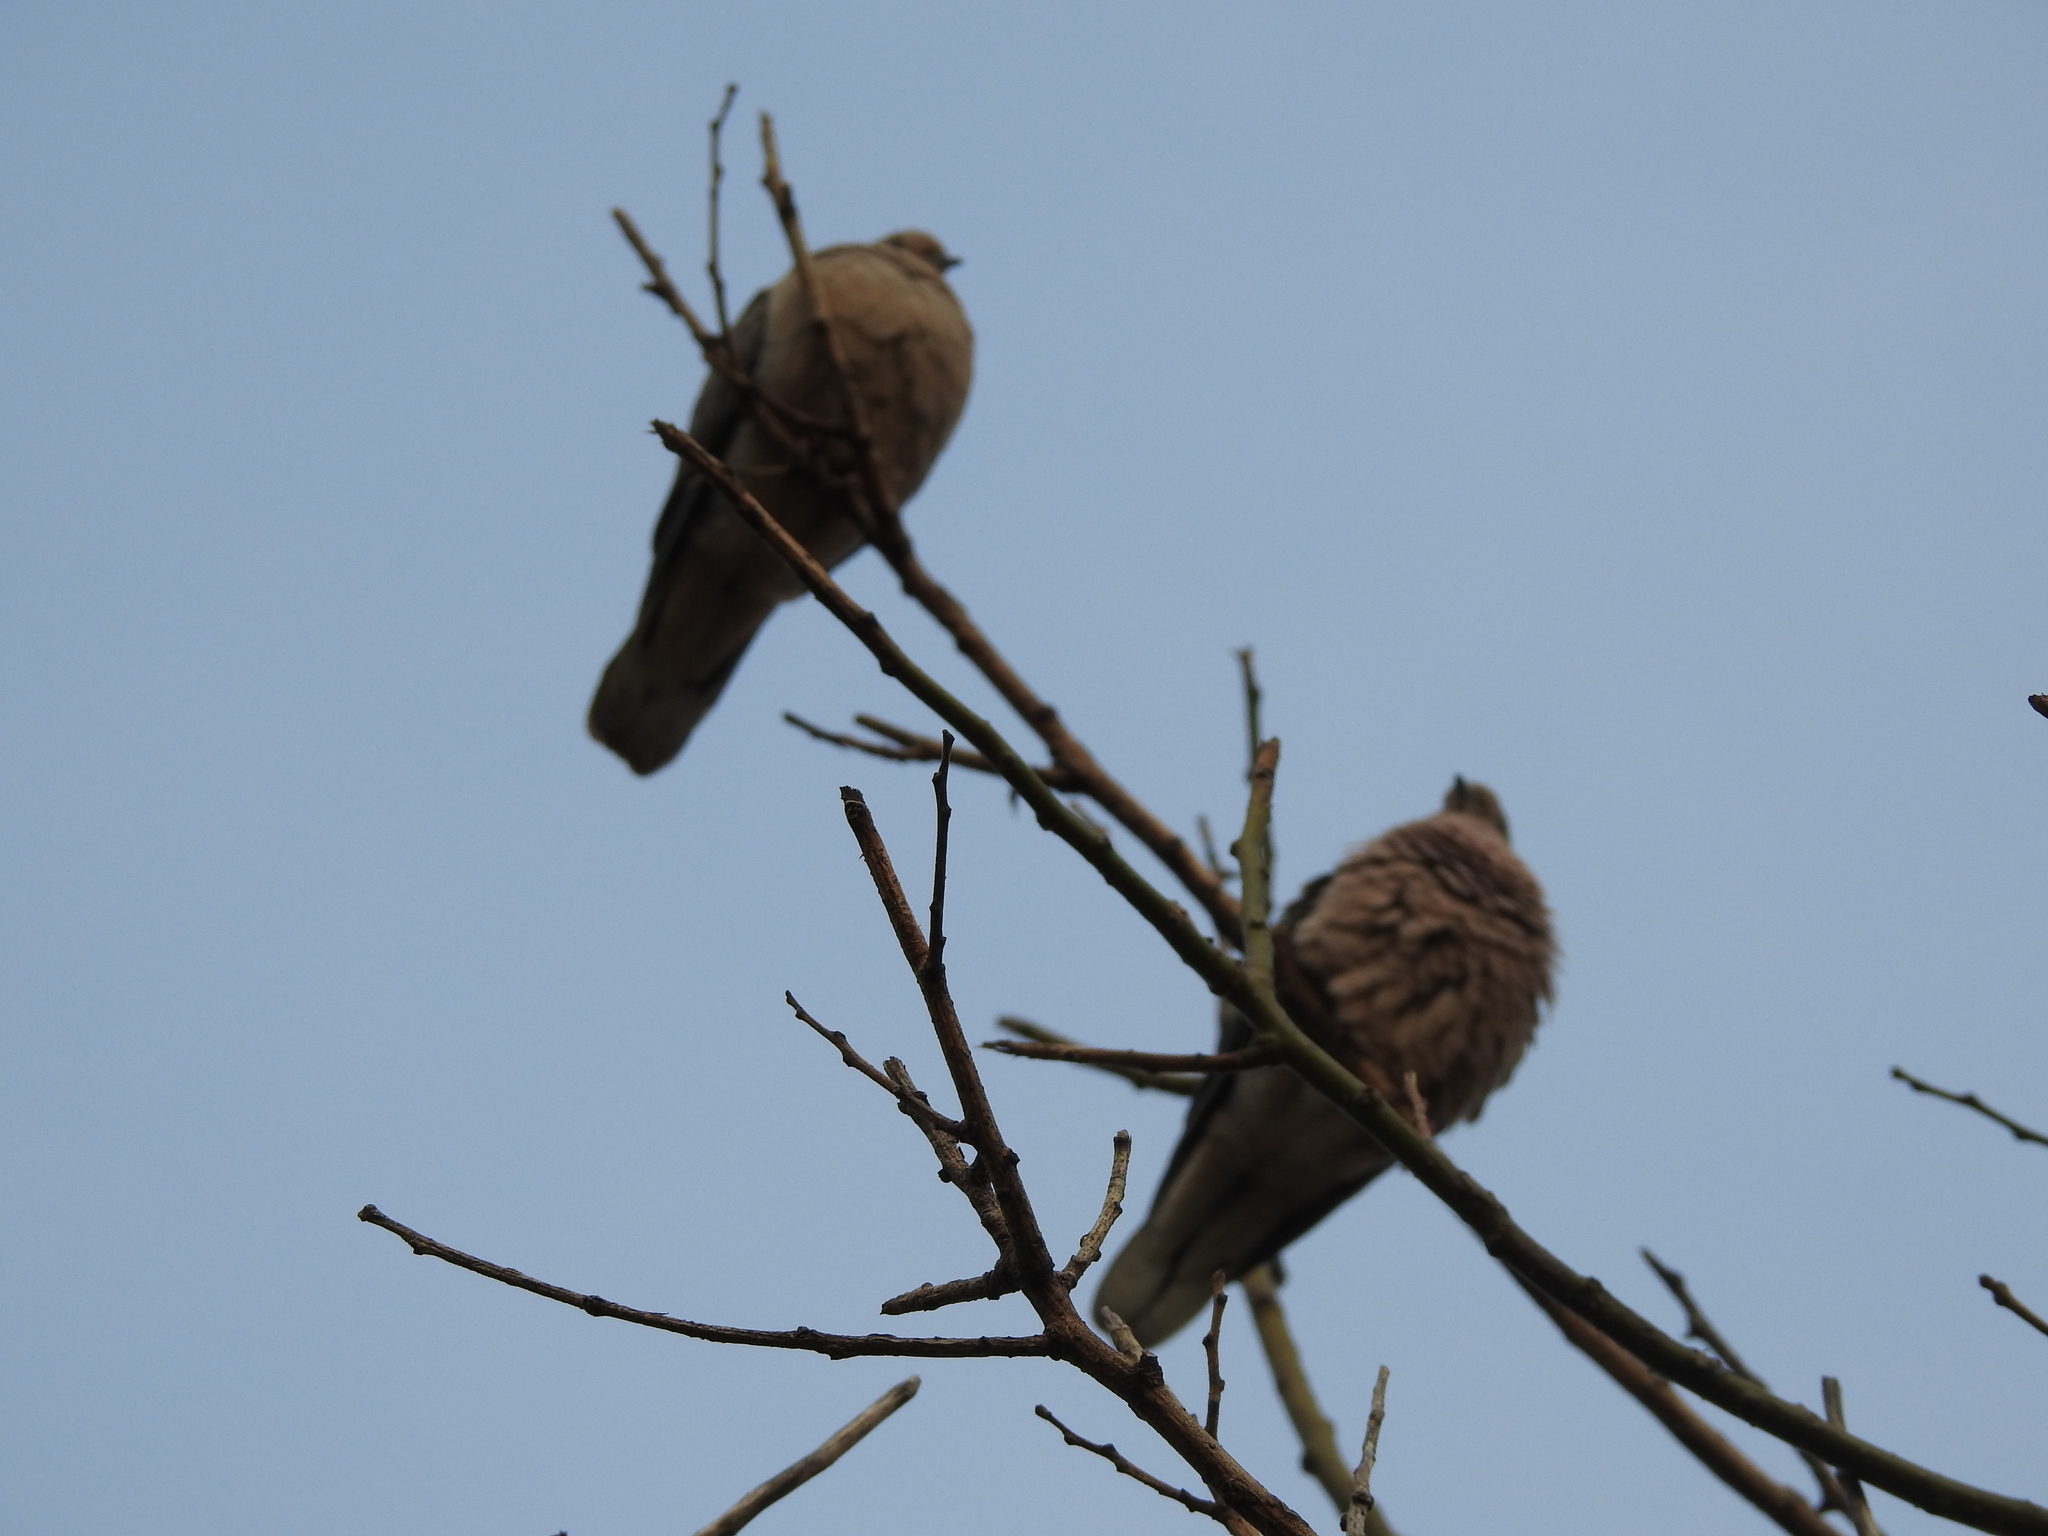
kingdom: Animalia
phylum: Chordata
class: Aves
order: Columbiformes
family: Columbidae
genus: Zenaida
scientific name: Zenaida auriculata
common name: Eared dove
